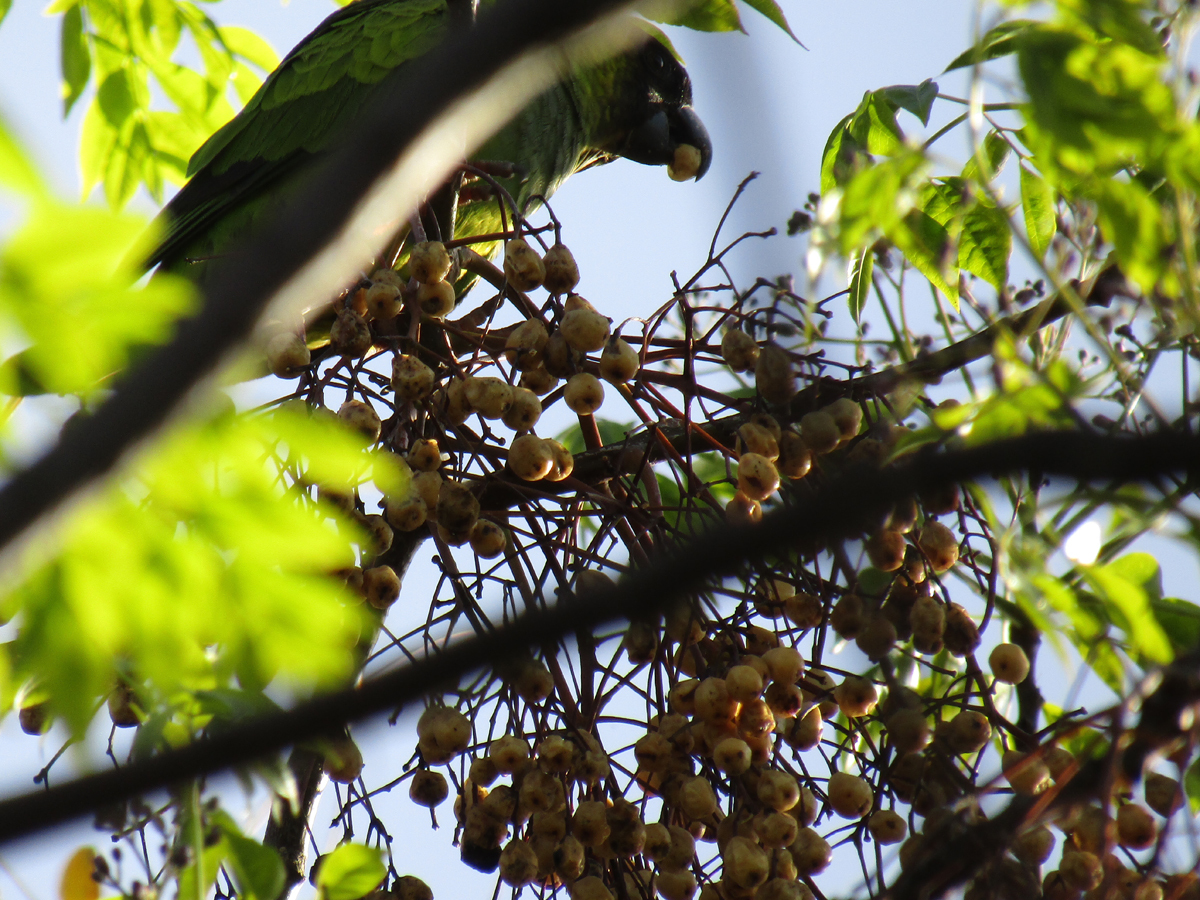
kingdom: Animalia
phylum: Chordata
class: Aves
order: Psittaciformes
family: Psittacidae
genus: Nandayus
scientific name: Nandayus nenday
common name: Nanday parakeet
